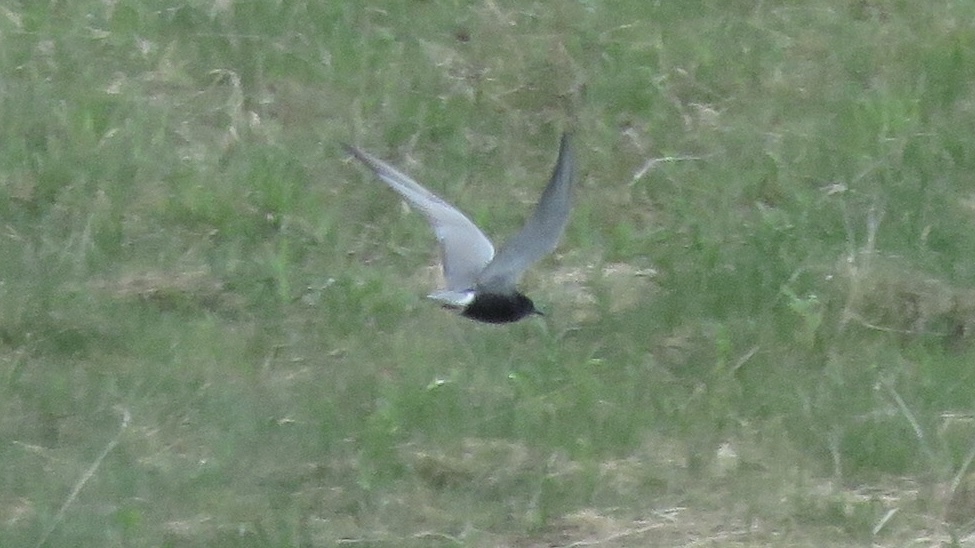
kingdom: Animalia
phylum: Chordata
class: Aves
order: Charadriiformes
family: Laridae
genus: Chlidonias
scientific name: Chlidonias niger
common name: Black tern
